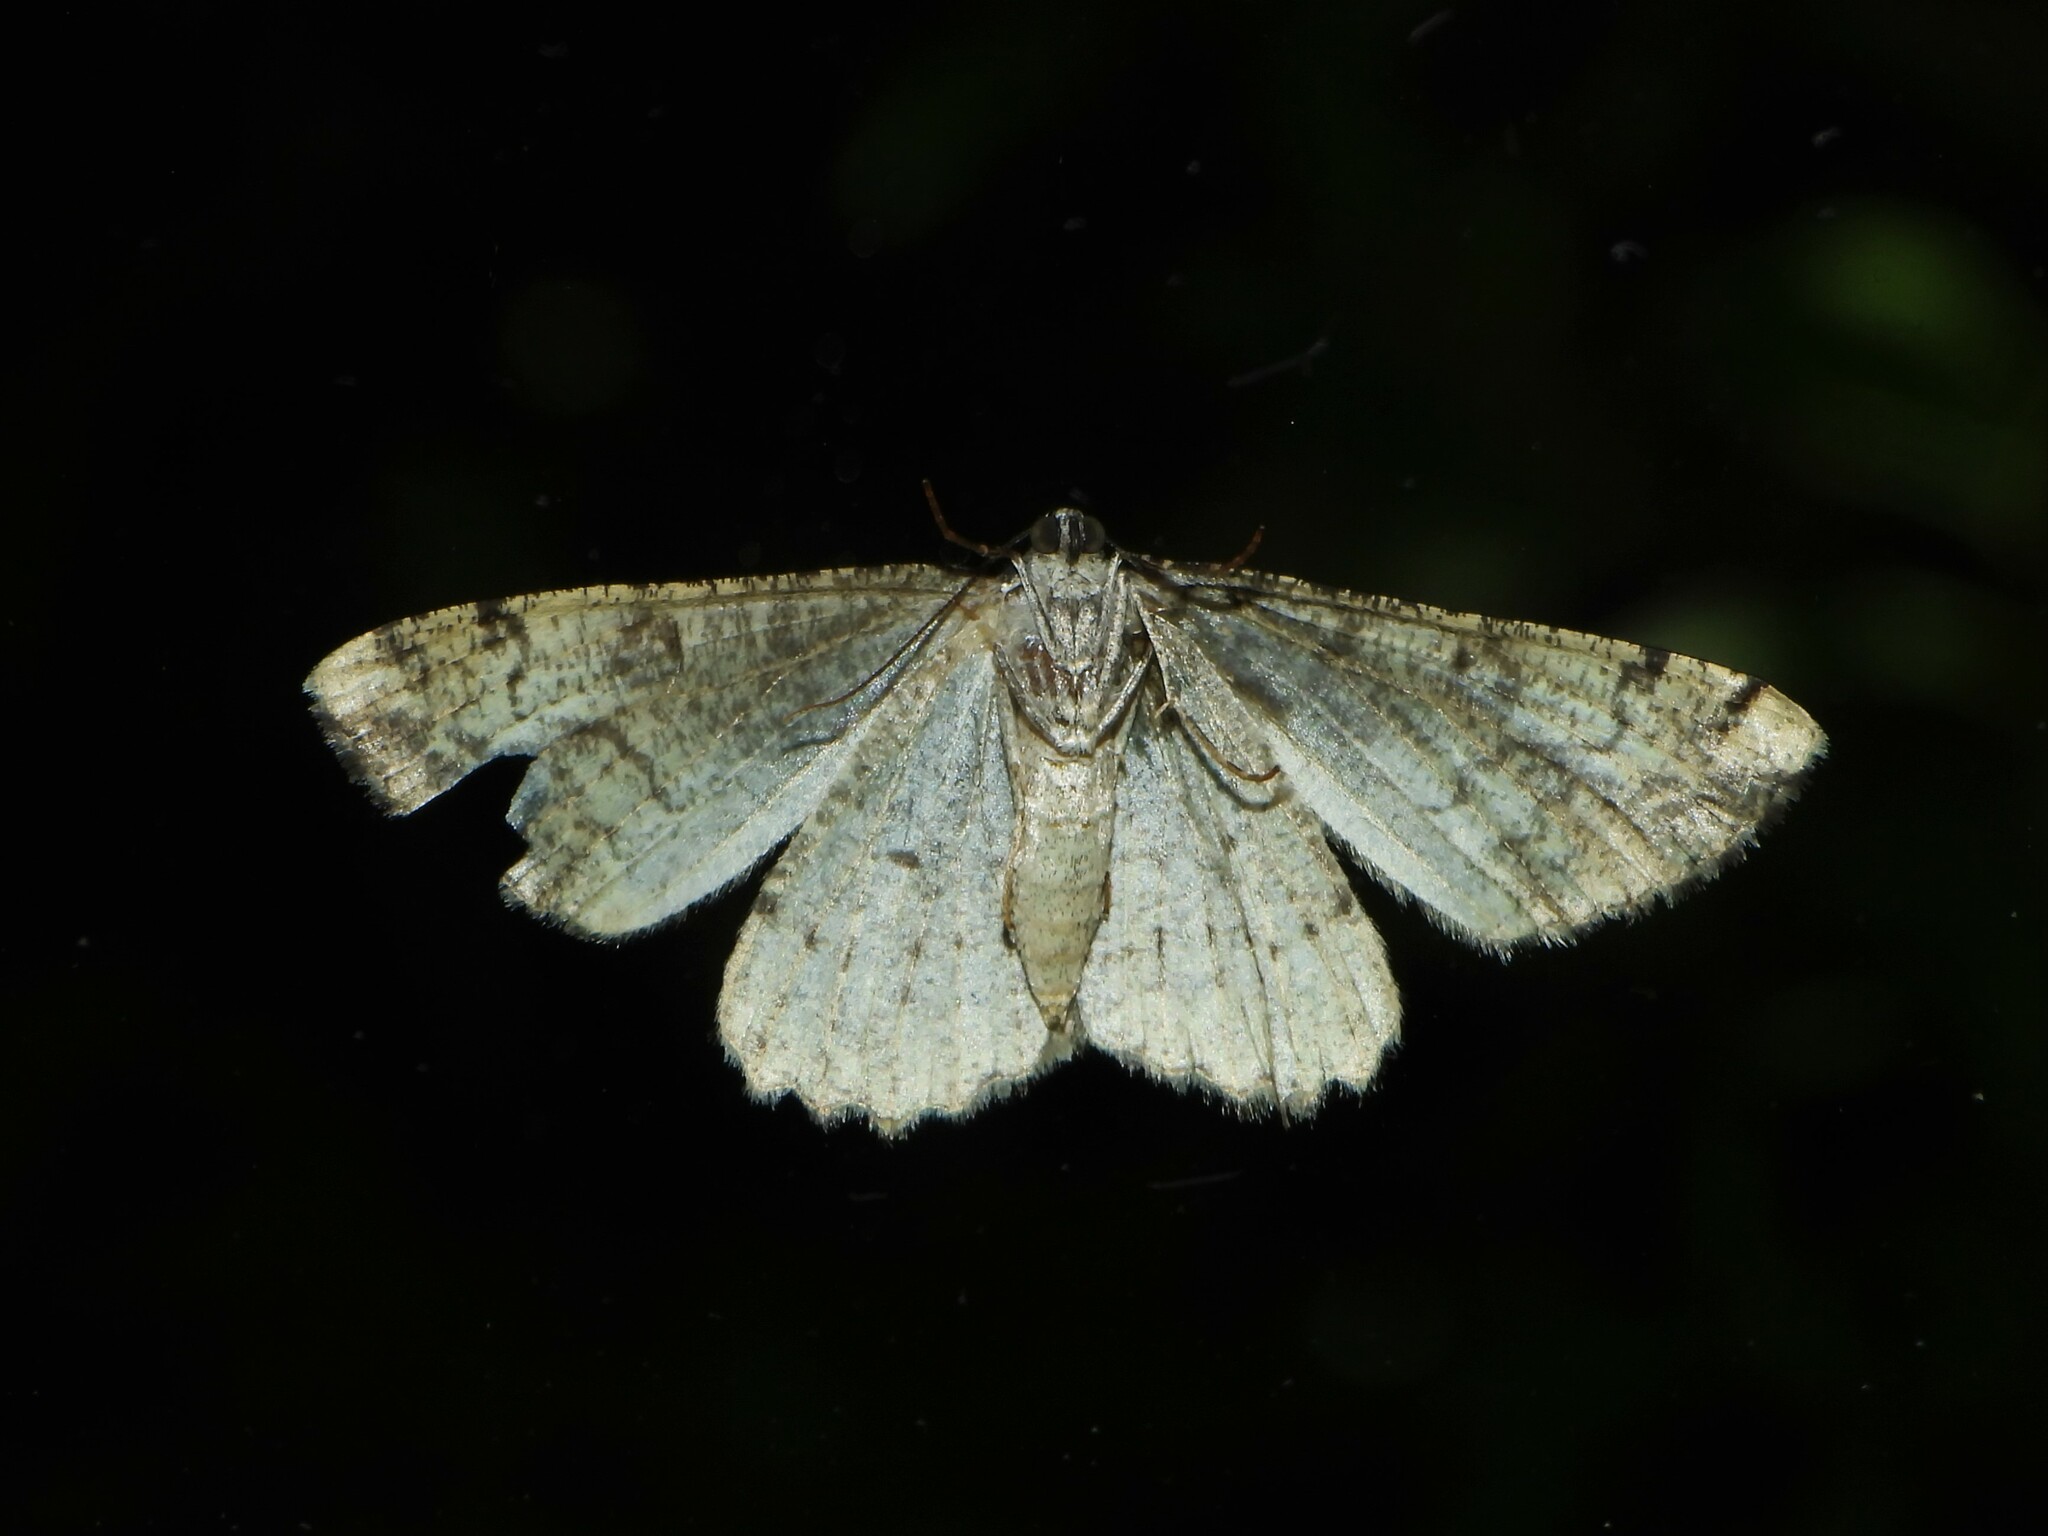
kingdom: Animalia
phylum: Arthropoda
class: Insecta
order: Lepidoptera
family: Geometridae
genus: Alcis
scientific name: Alcis repandata
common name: Mottled beauty
